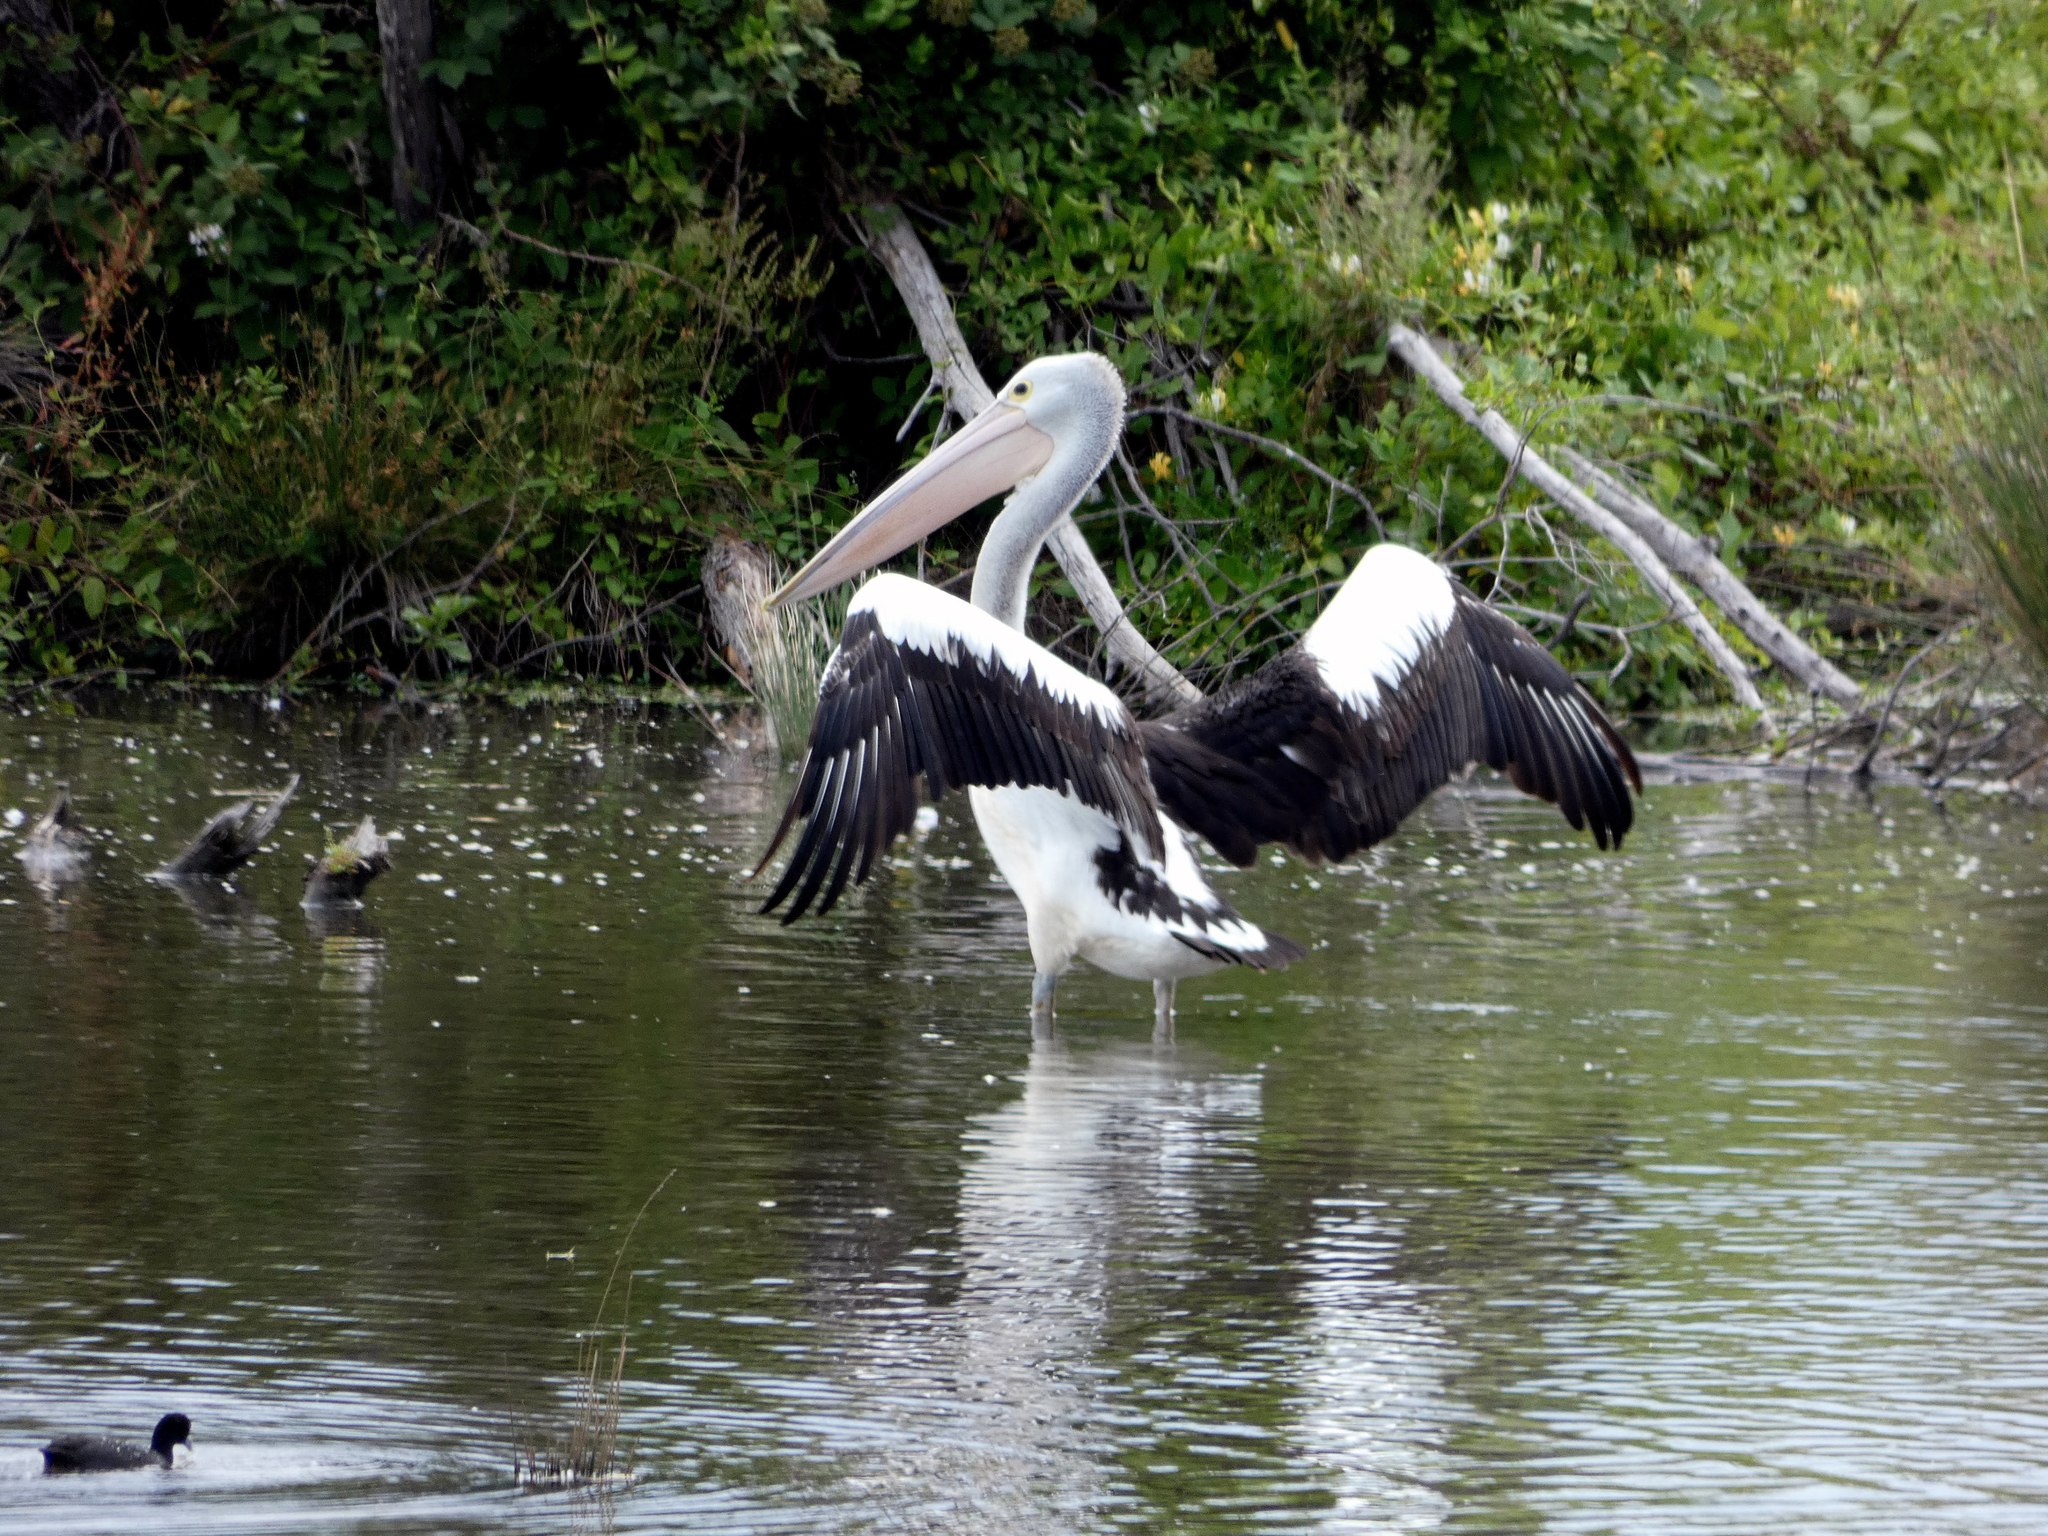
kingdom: Animalia
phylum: Chordata
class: Aves
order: Pelecaniformes
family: Pelecanidae
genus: Pelecanus
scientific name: Pelecanus conspicillatus
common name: Australian pelican
